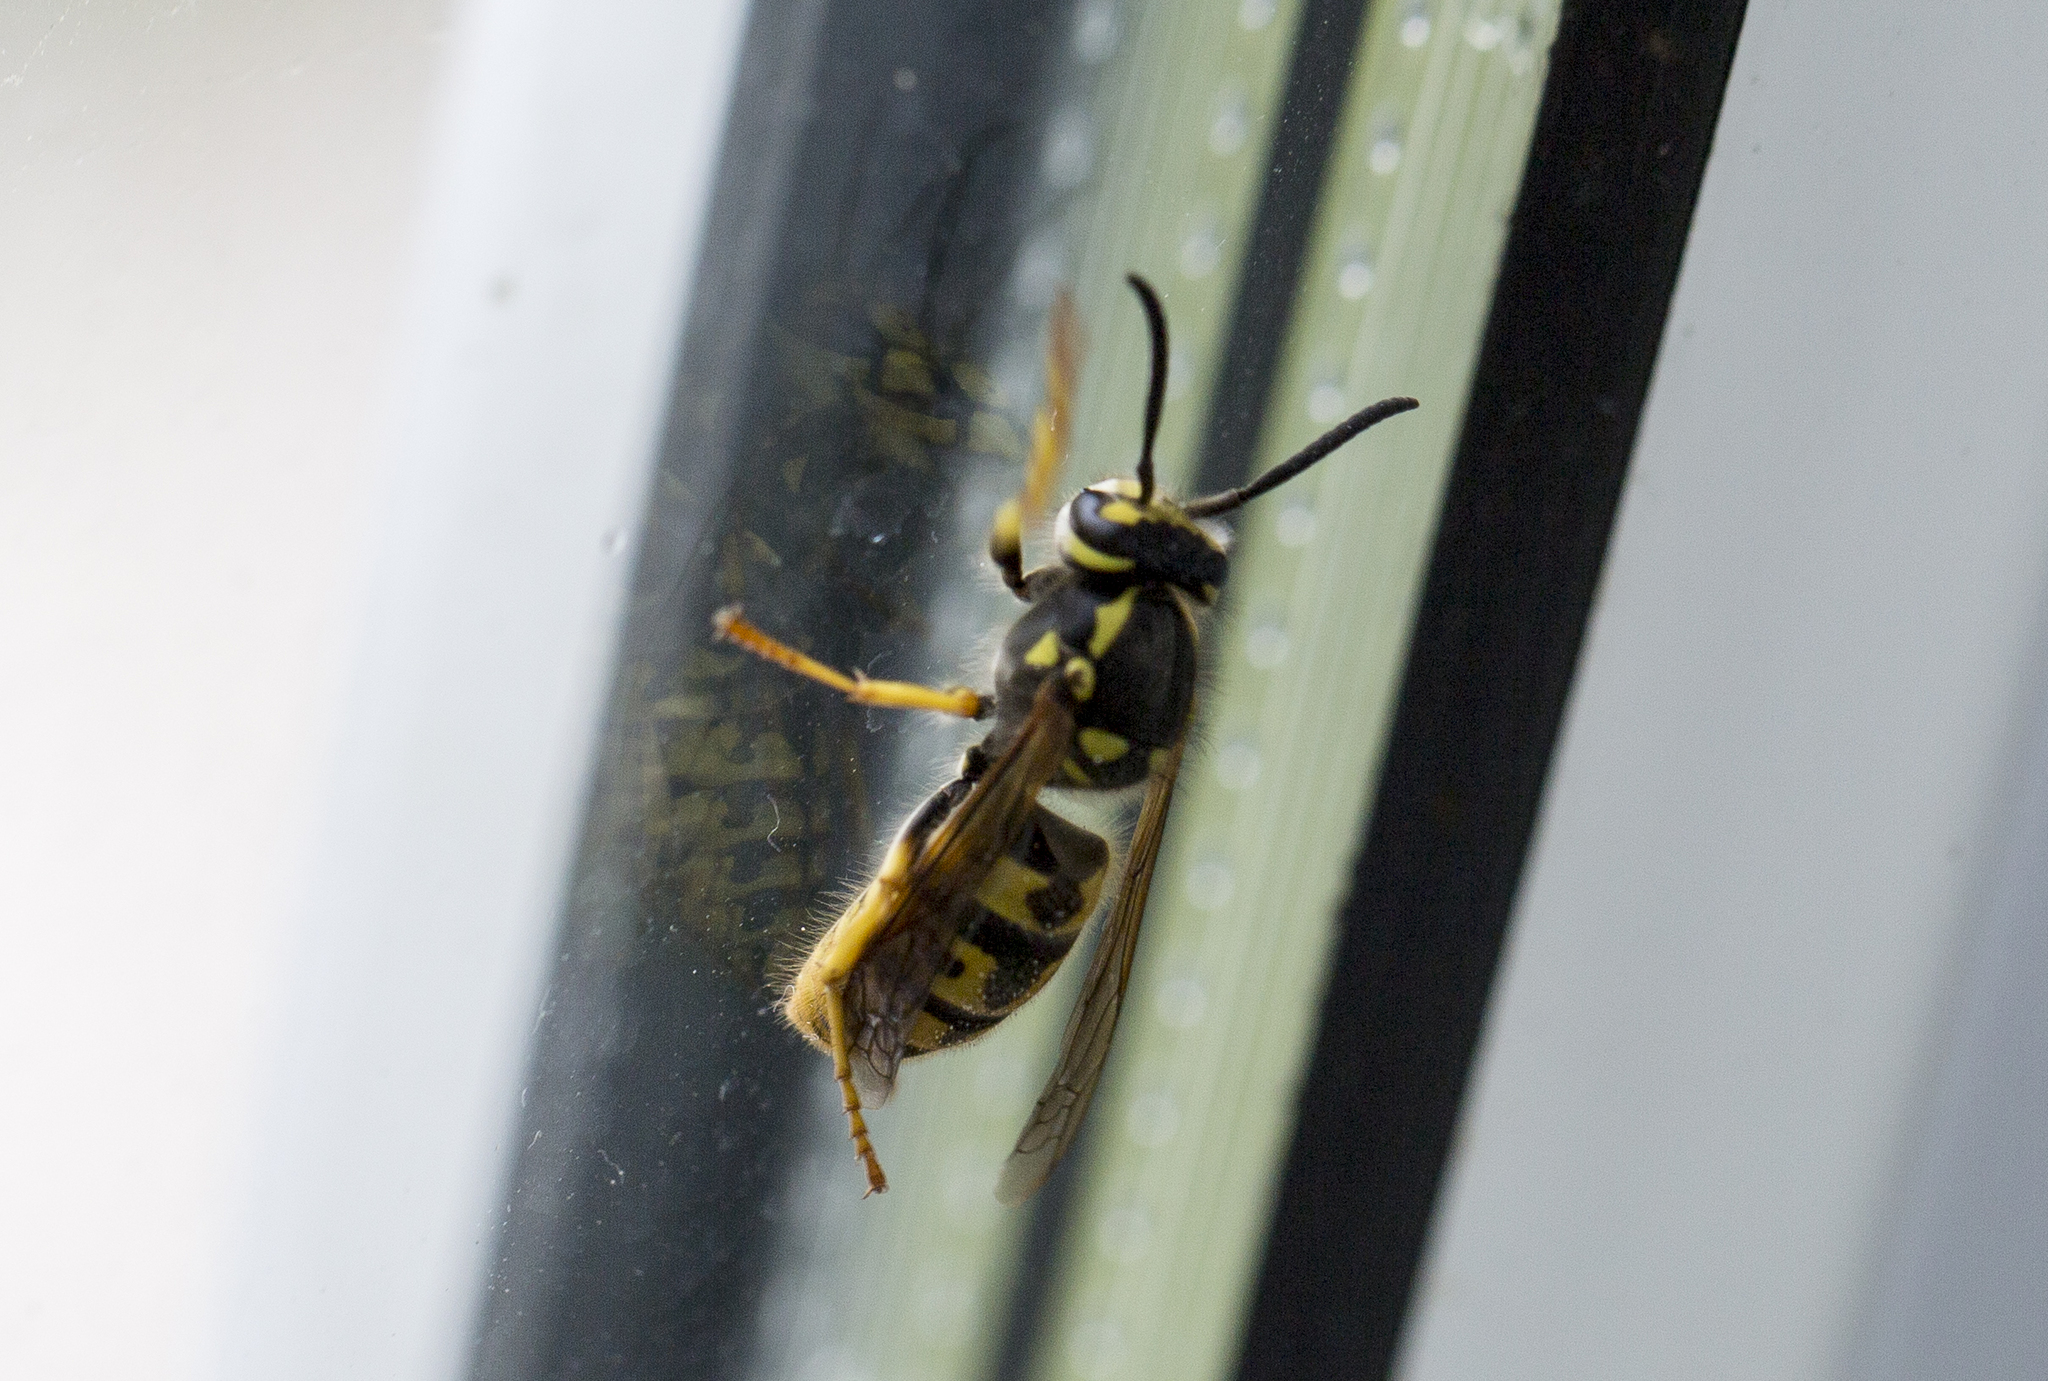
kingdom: Animalia
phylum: Arthropoda
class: Insecta
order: Hymenoptera
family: Vespidae
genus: Vespula
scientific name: Vespula germanica
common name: German wasp
